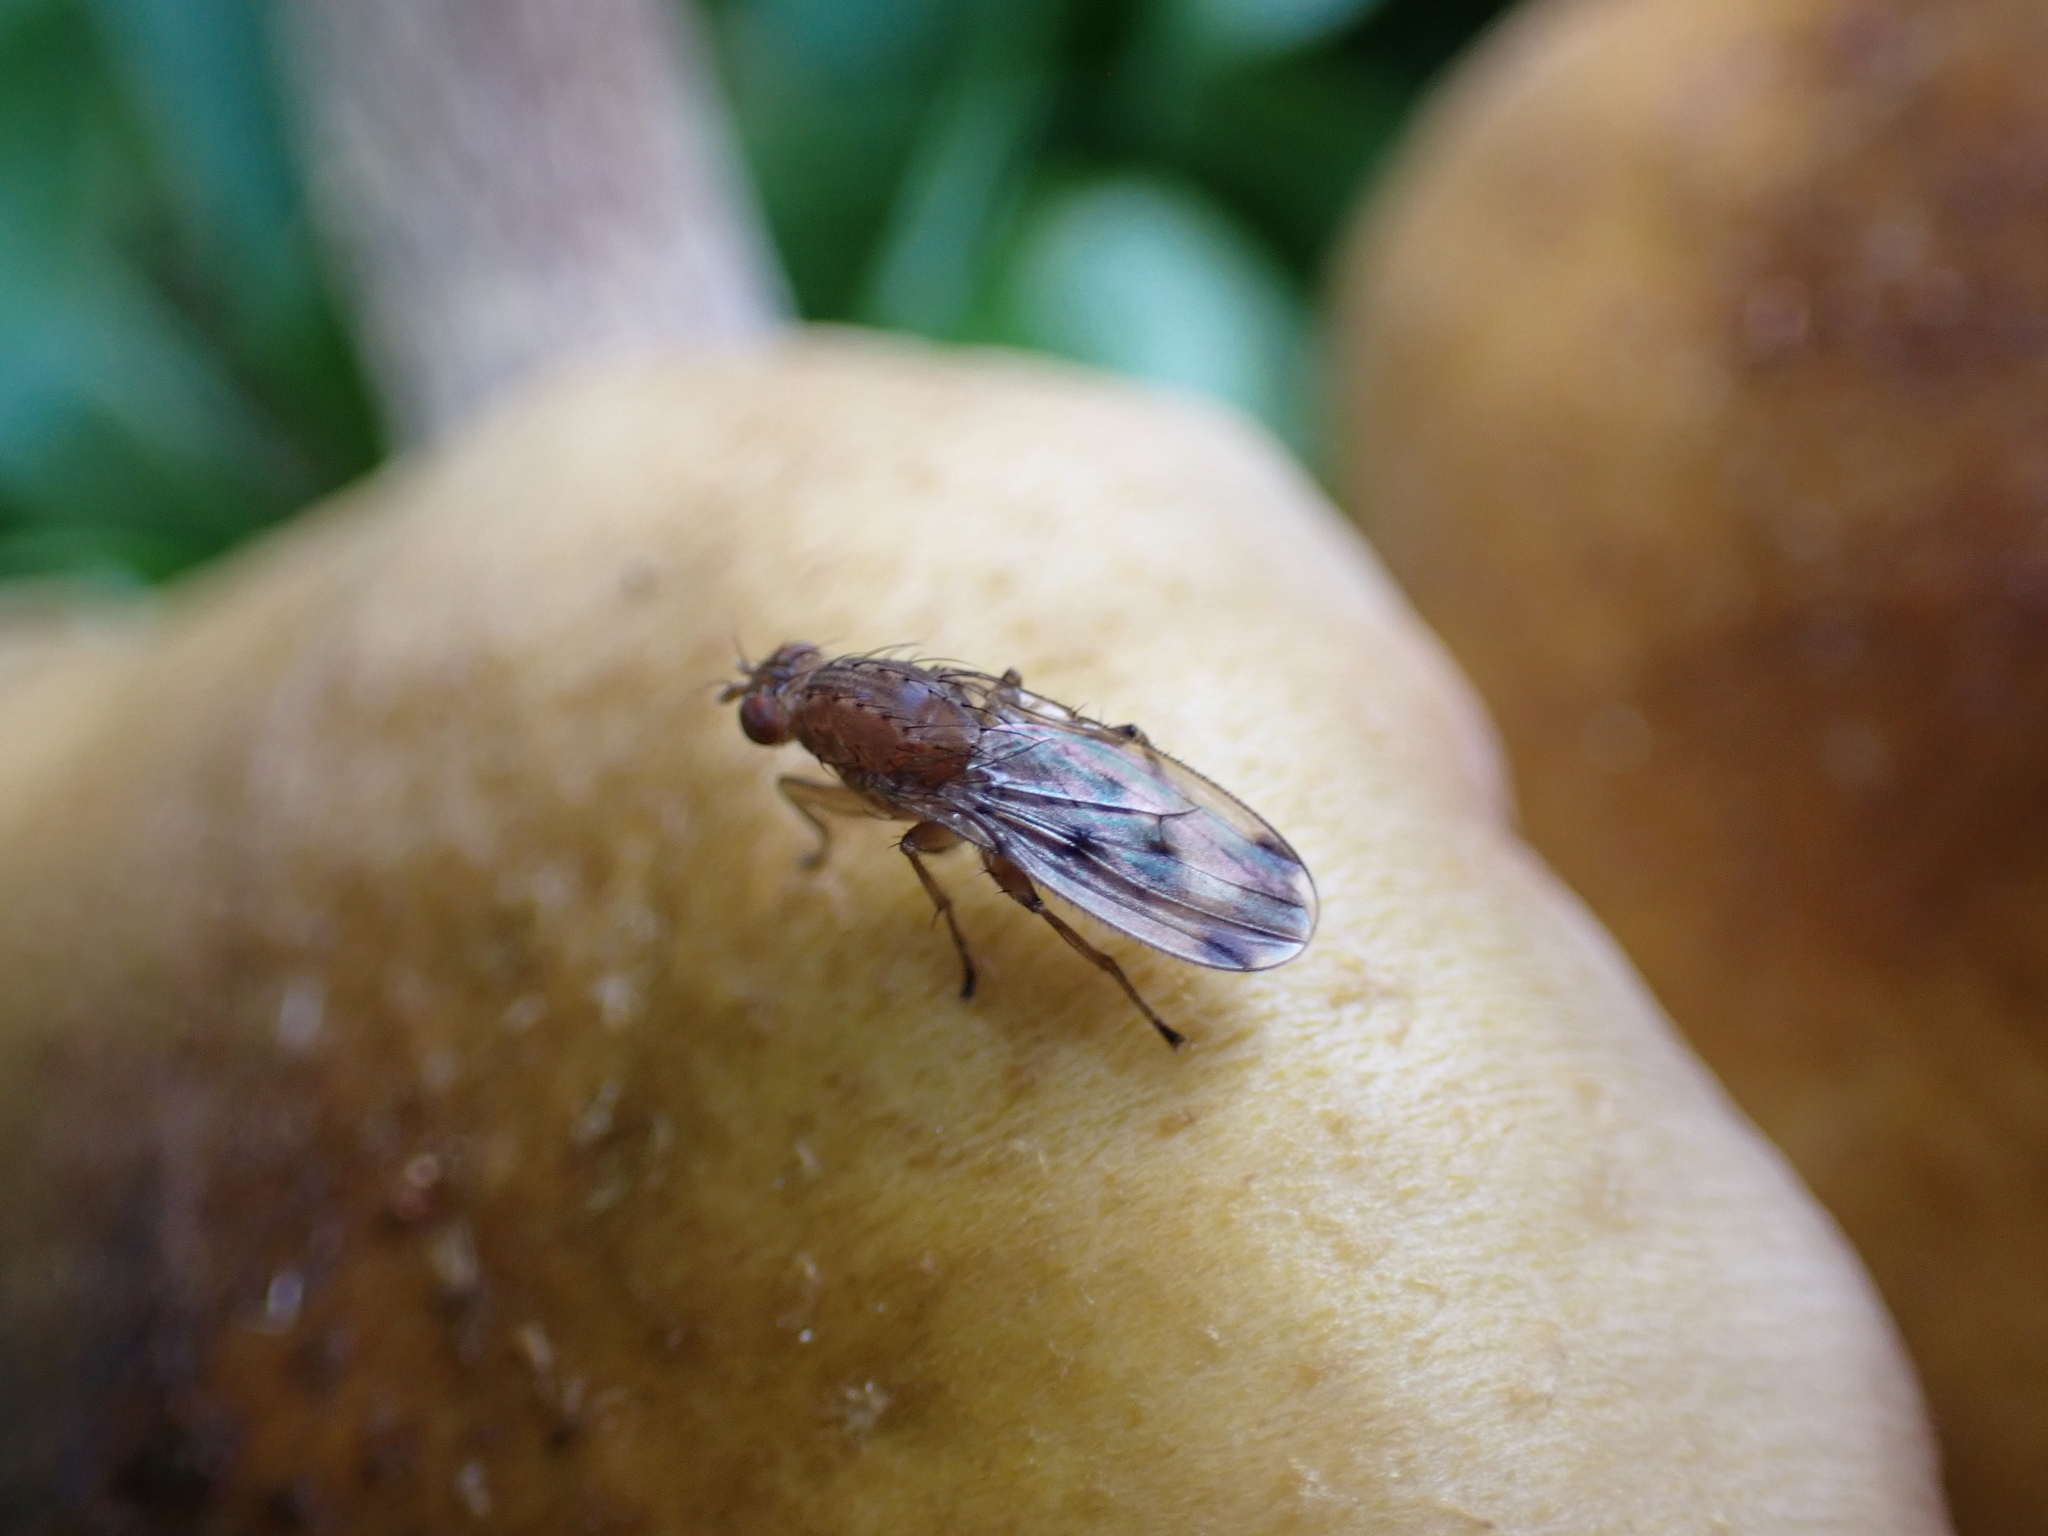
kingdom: Animalia
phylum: Arthropoda
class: Insecta
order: Diptera
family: Heleomyzidae
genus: Suillia
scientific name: Suillia variegata
